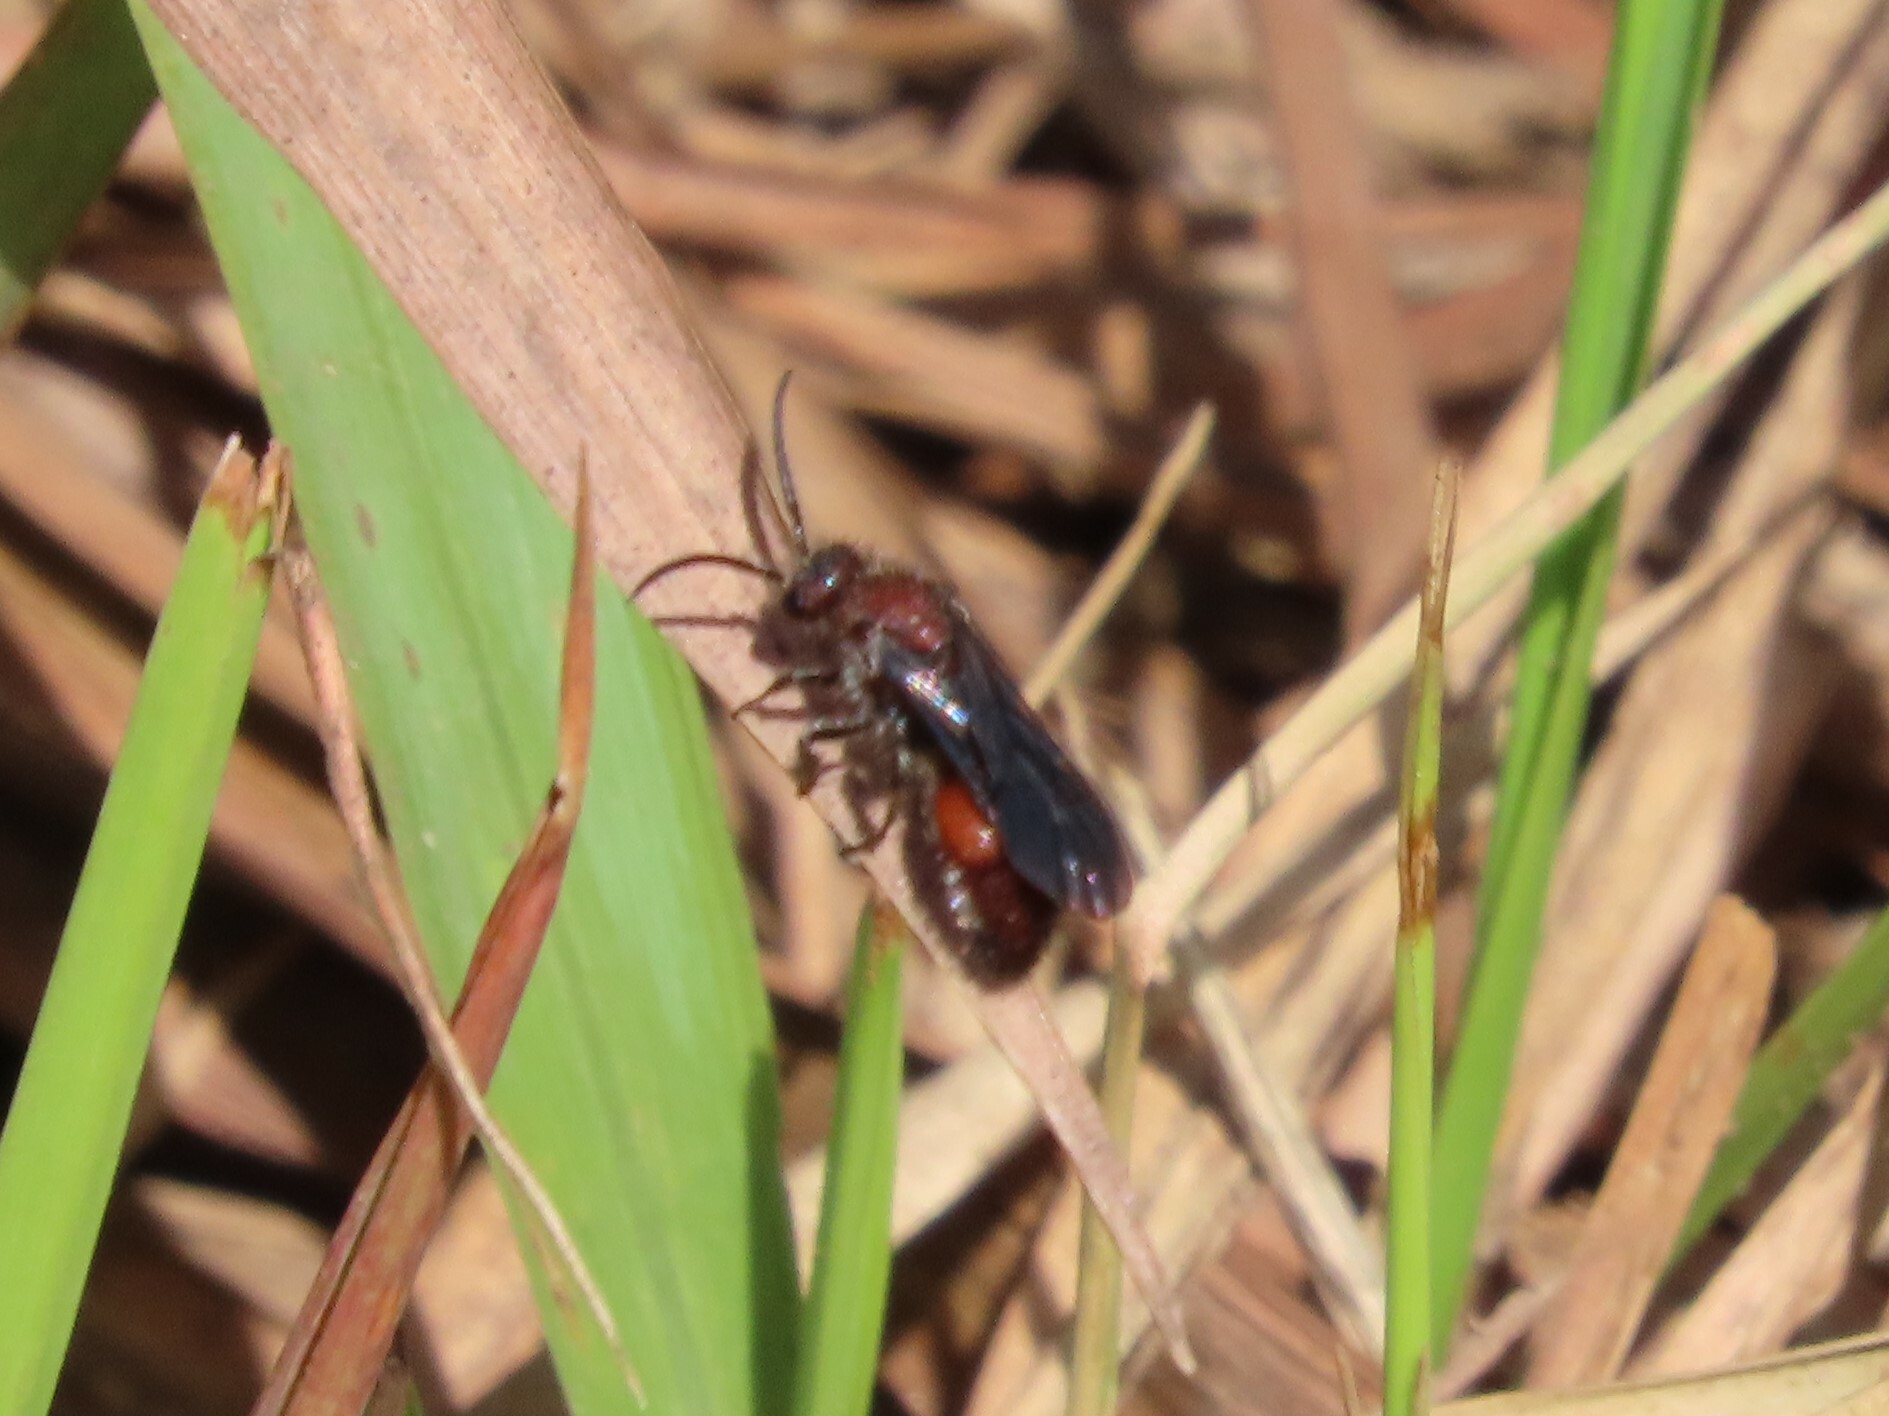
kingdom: Animalia
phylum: Arthropoda
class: Insecta
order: Hymenoptera
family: Mutillidae
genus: Pseudomethoca
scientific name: Pseudomethoca sanbornii
